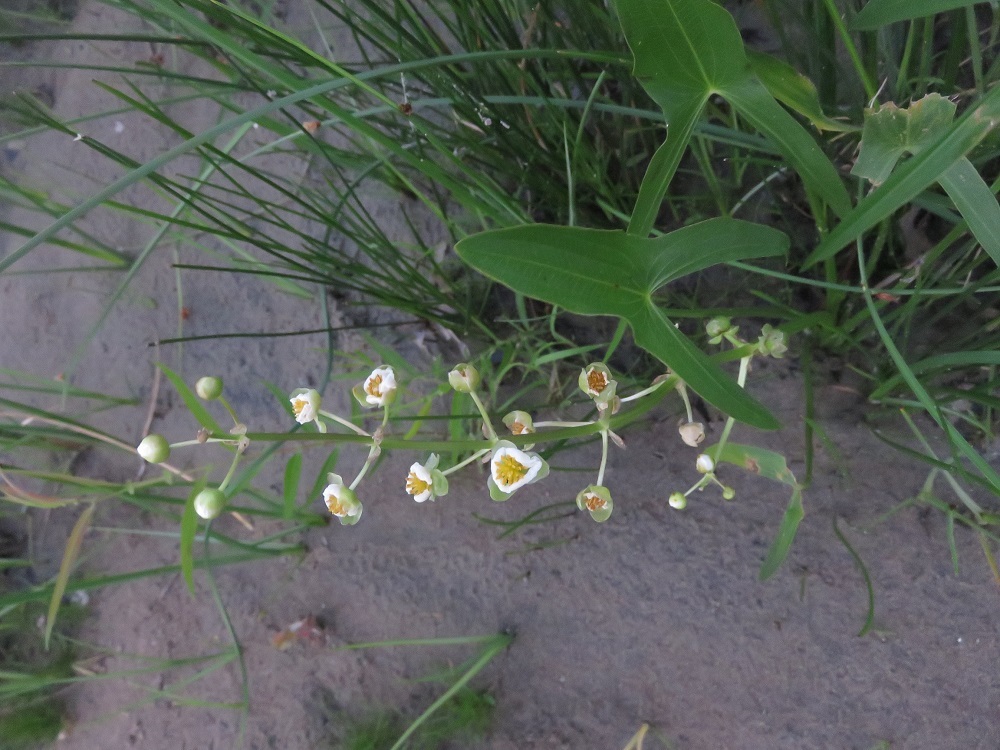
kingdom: Plantae
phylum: Tracheophyta
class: Liliopsida
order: Alismatales
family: Alismataceae
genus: Sagittaria
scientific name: Sagittaria latifolia
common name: Duck-potato
